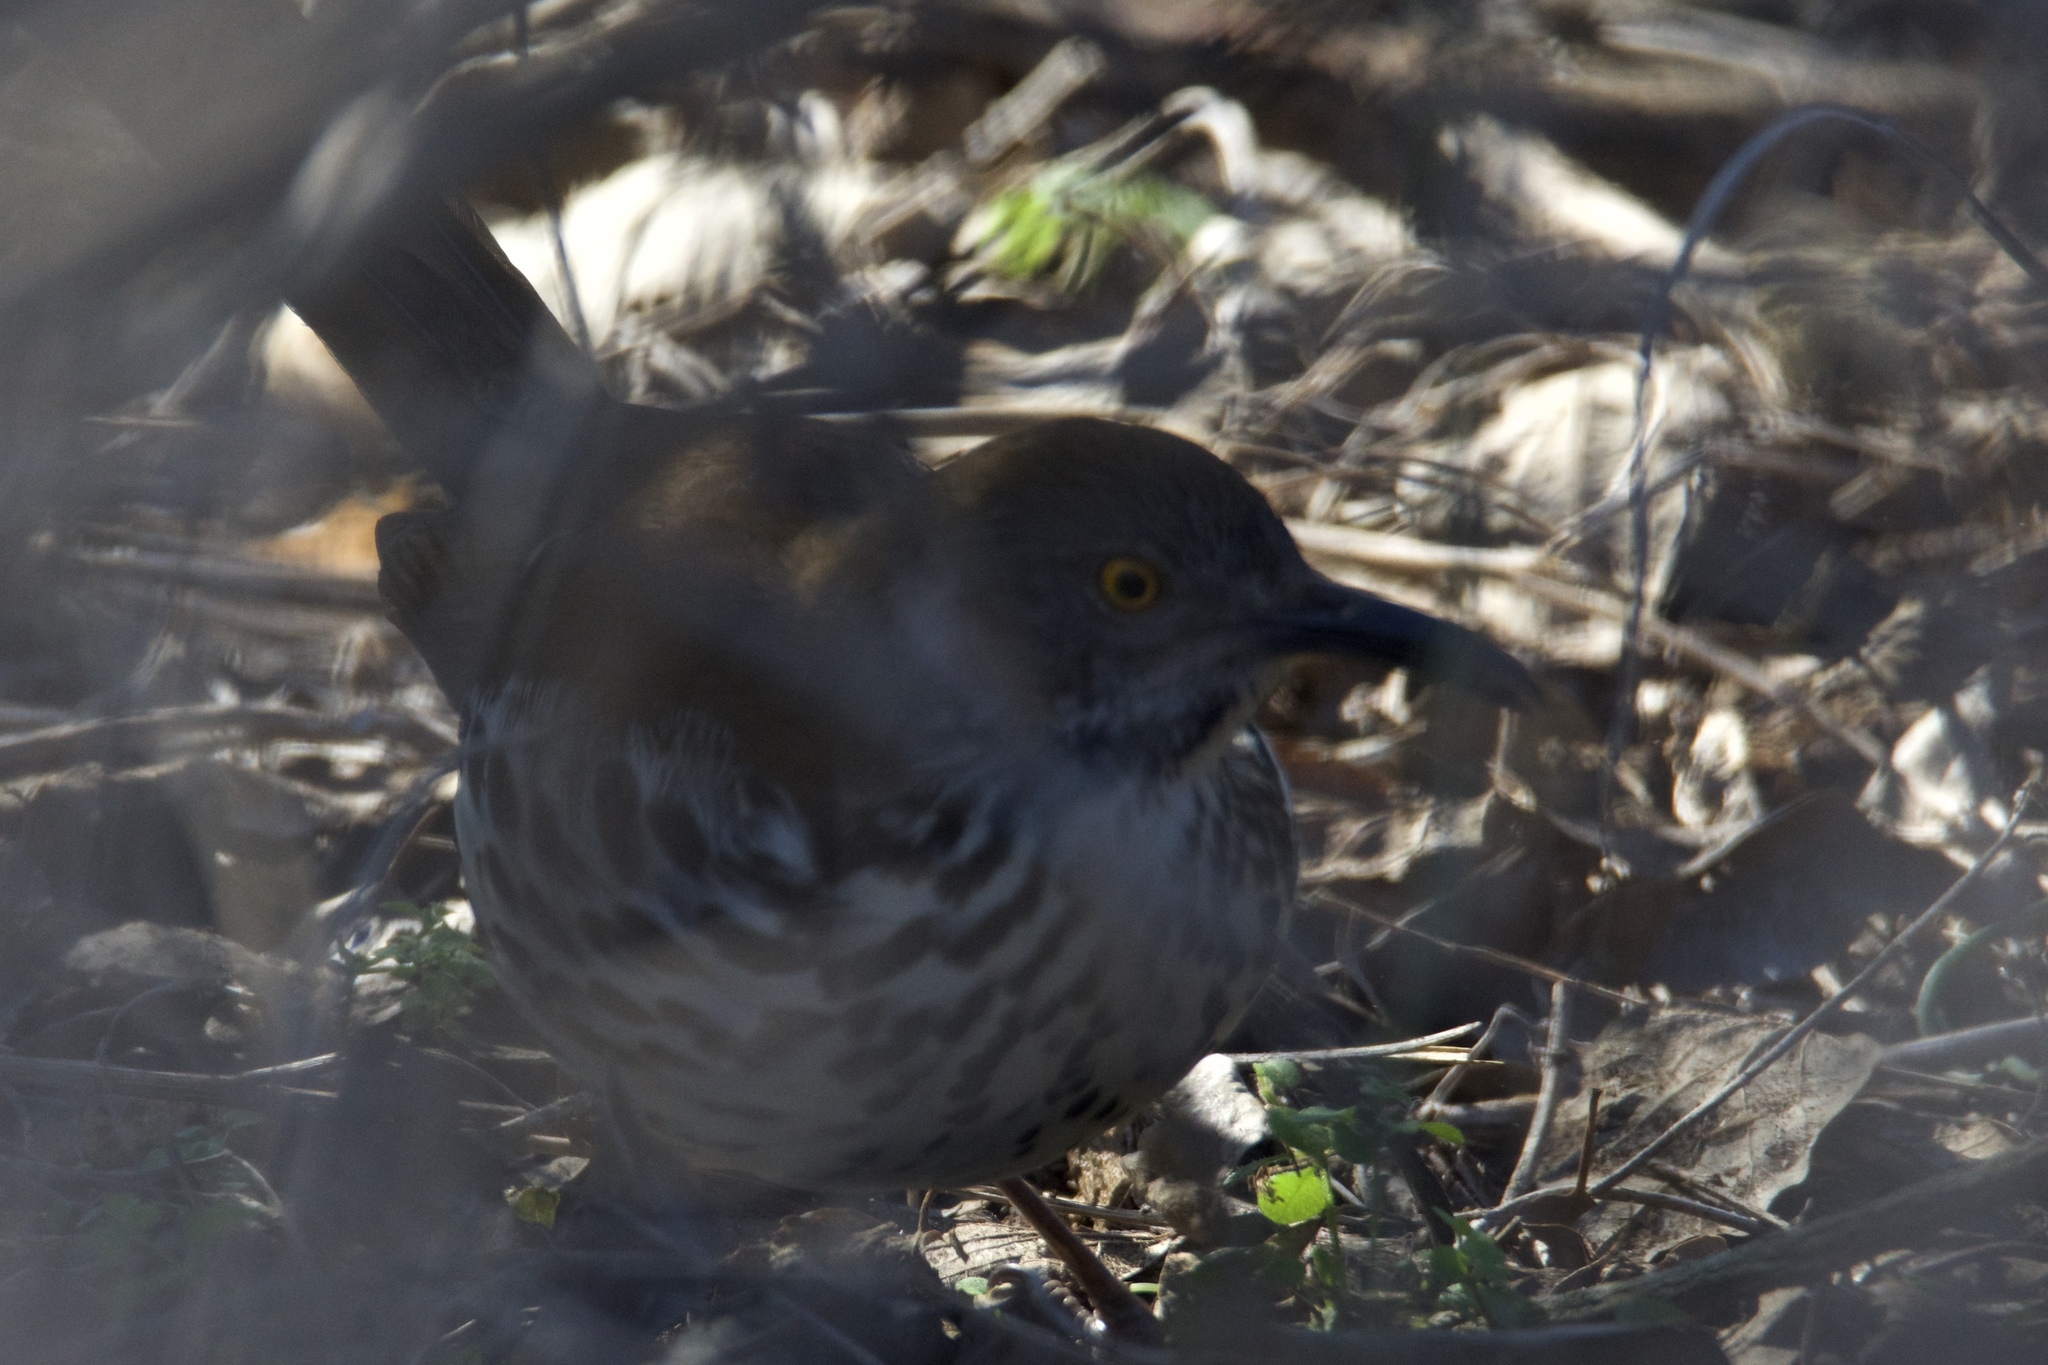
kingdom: Animalia
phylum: Chordata
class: Aves
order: Passeriformes
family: Mimidae
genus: Toxostoma
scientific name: Toxostoma longirostre
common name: Long-billed thrasher
